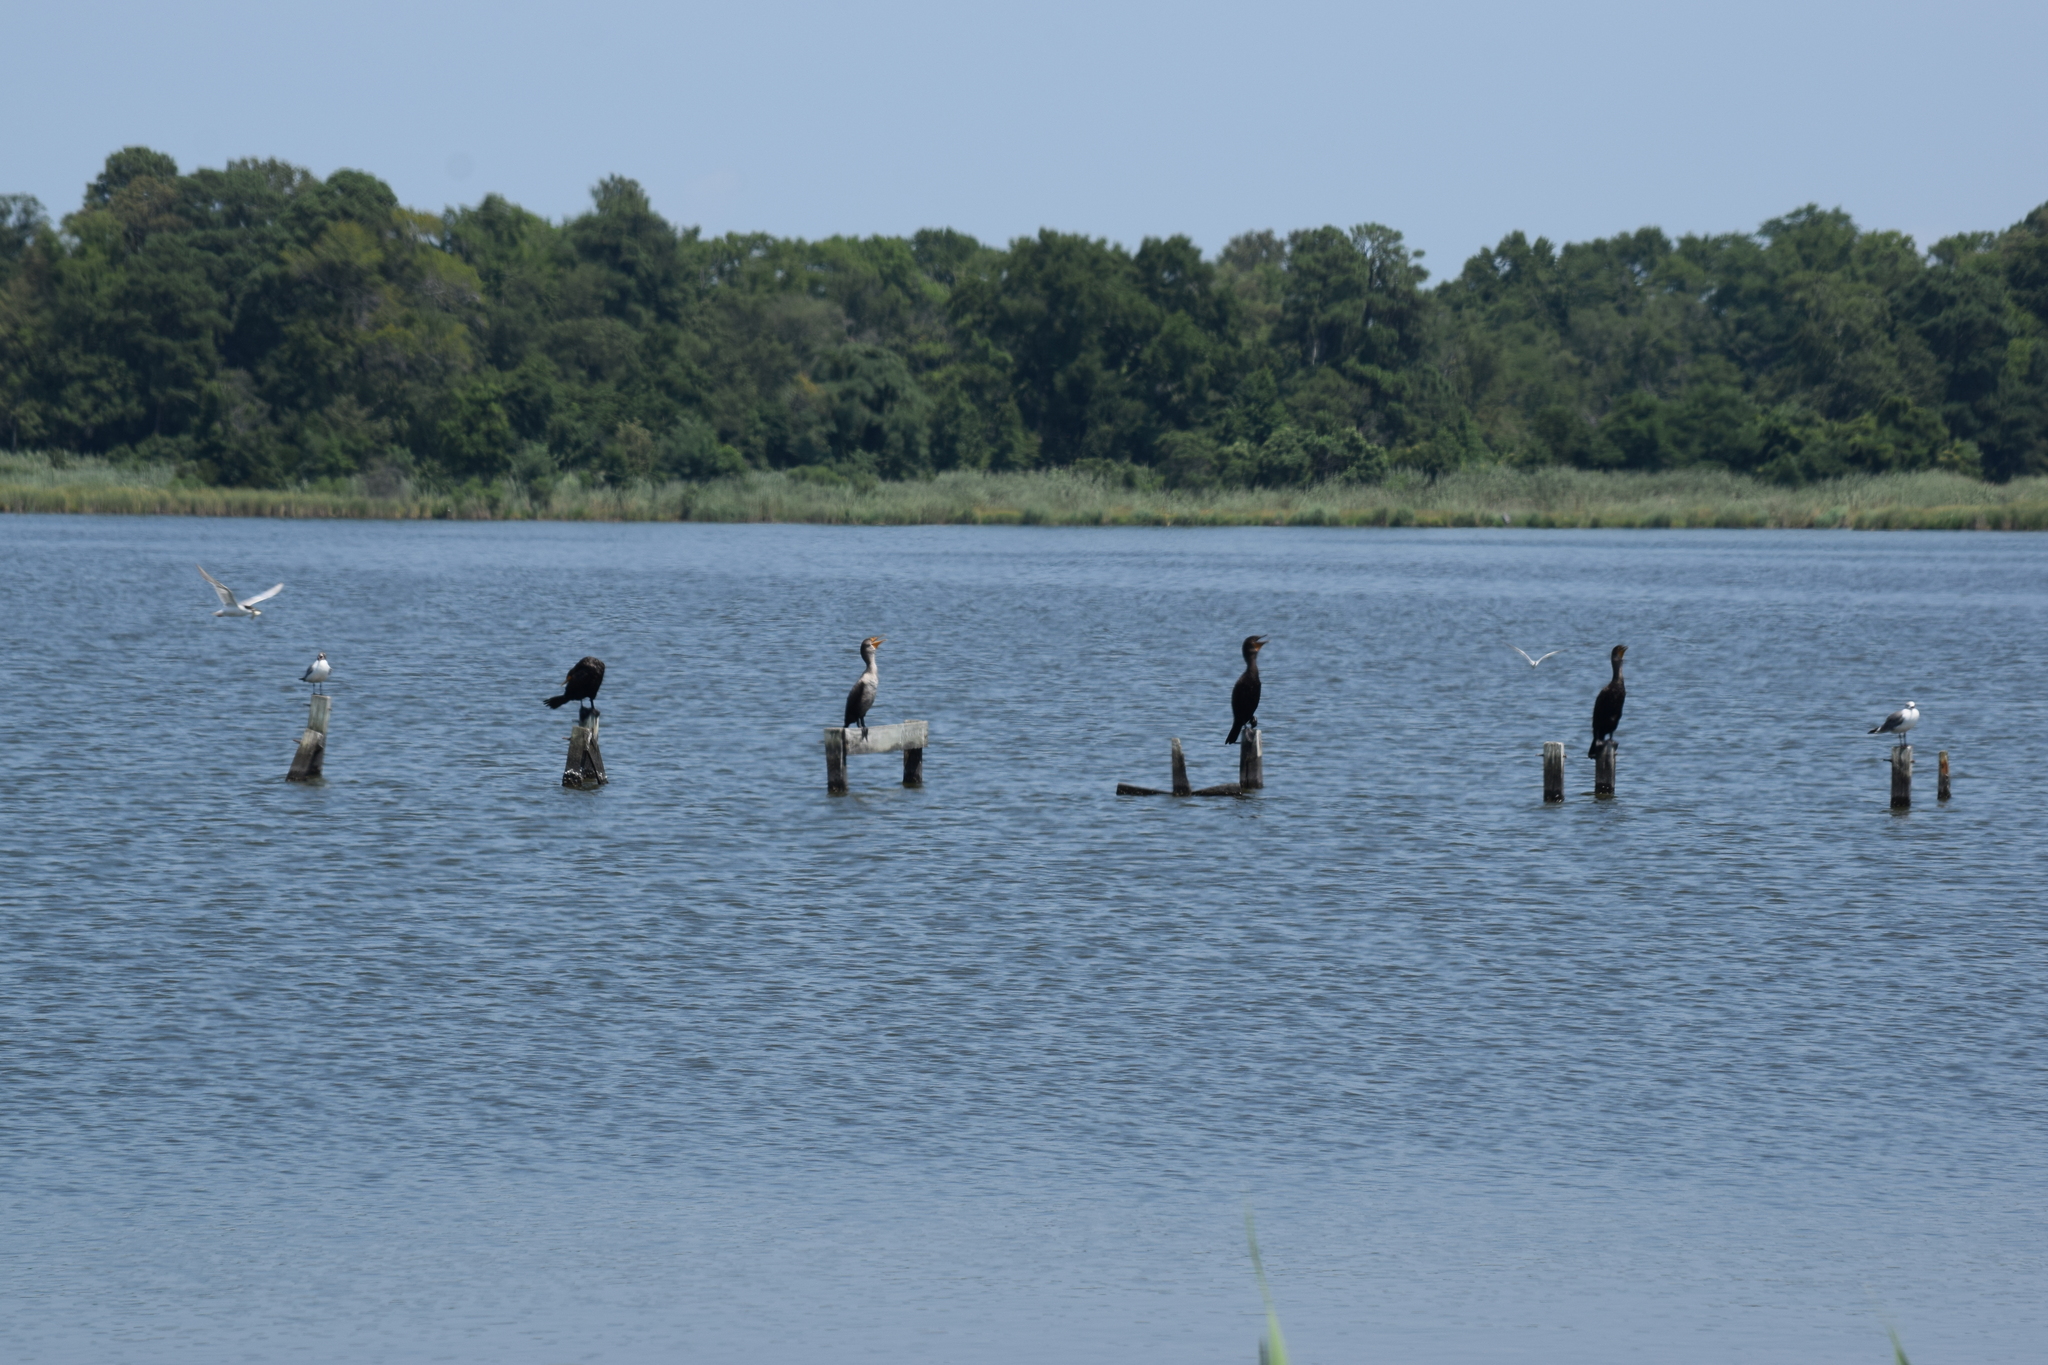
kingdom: Animalia
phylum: Chordata
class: Aves
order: Suliformes
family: Phalacrocoracidae
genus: Phalacrocorax
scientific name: Phalacrocorax auritus
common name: Double-crested cormorant
